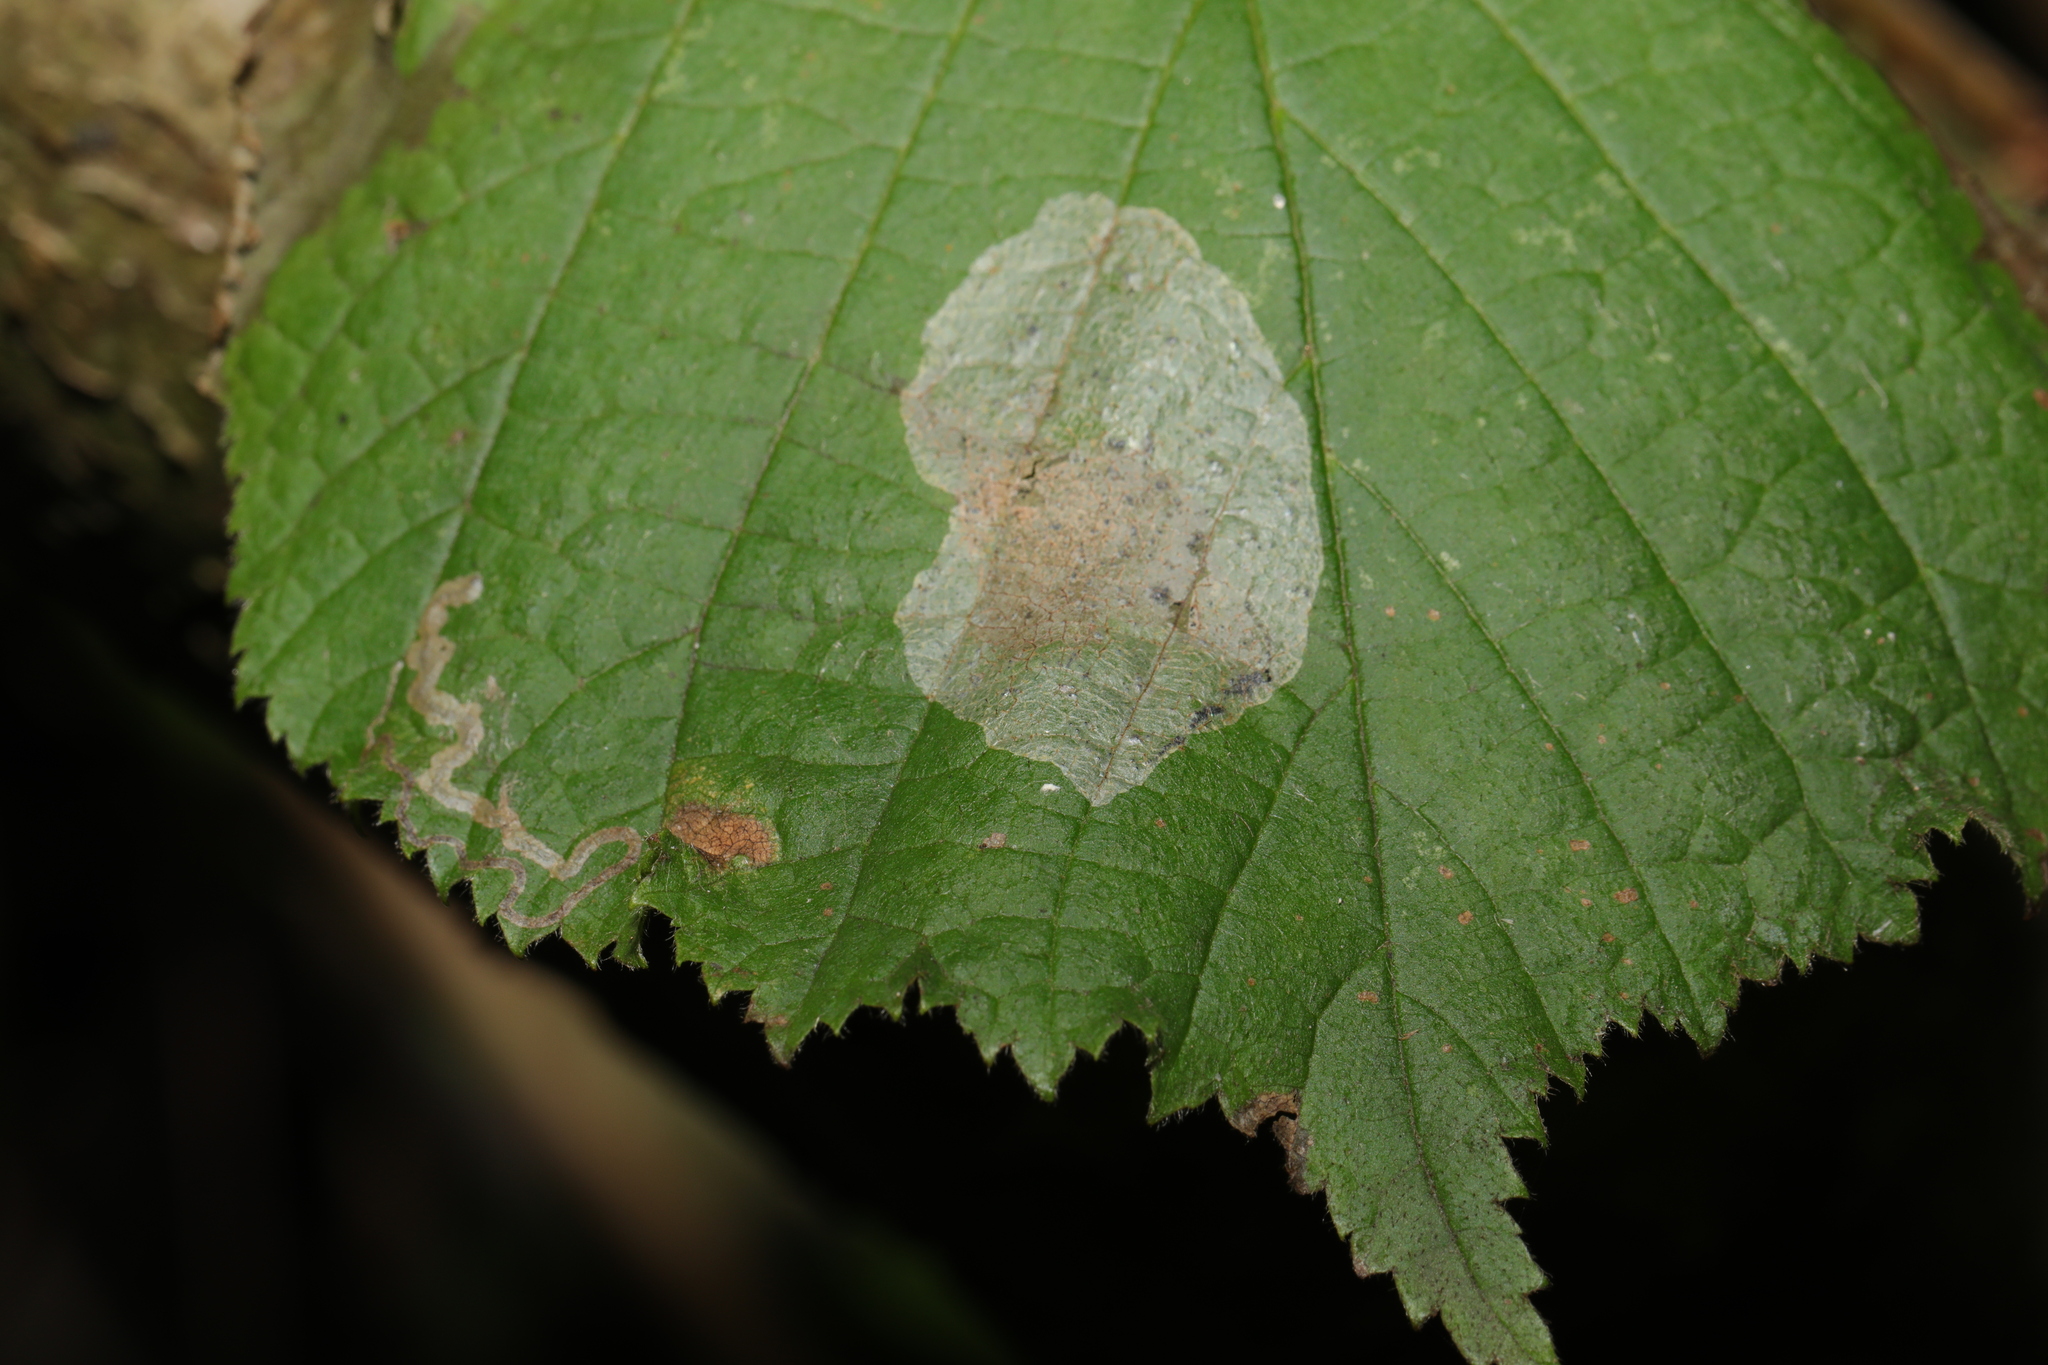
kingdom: Animalia
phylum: Arthropoda
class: Insecta
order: Lepidoptera
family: Gracillariidae
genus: Phyllonorycter
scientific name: Phyllonorycter coryli
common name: Nut-leaf blister moth
